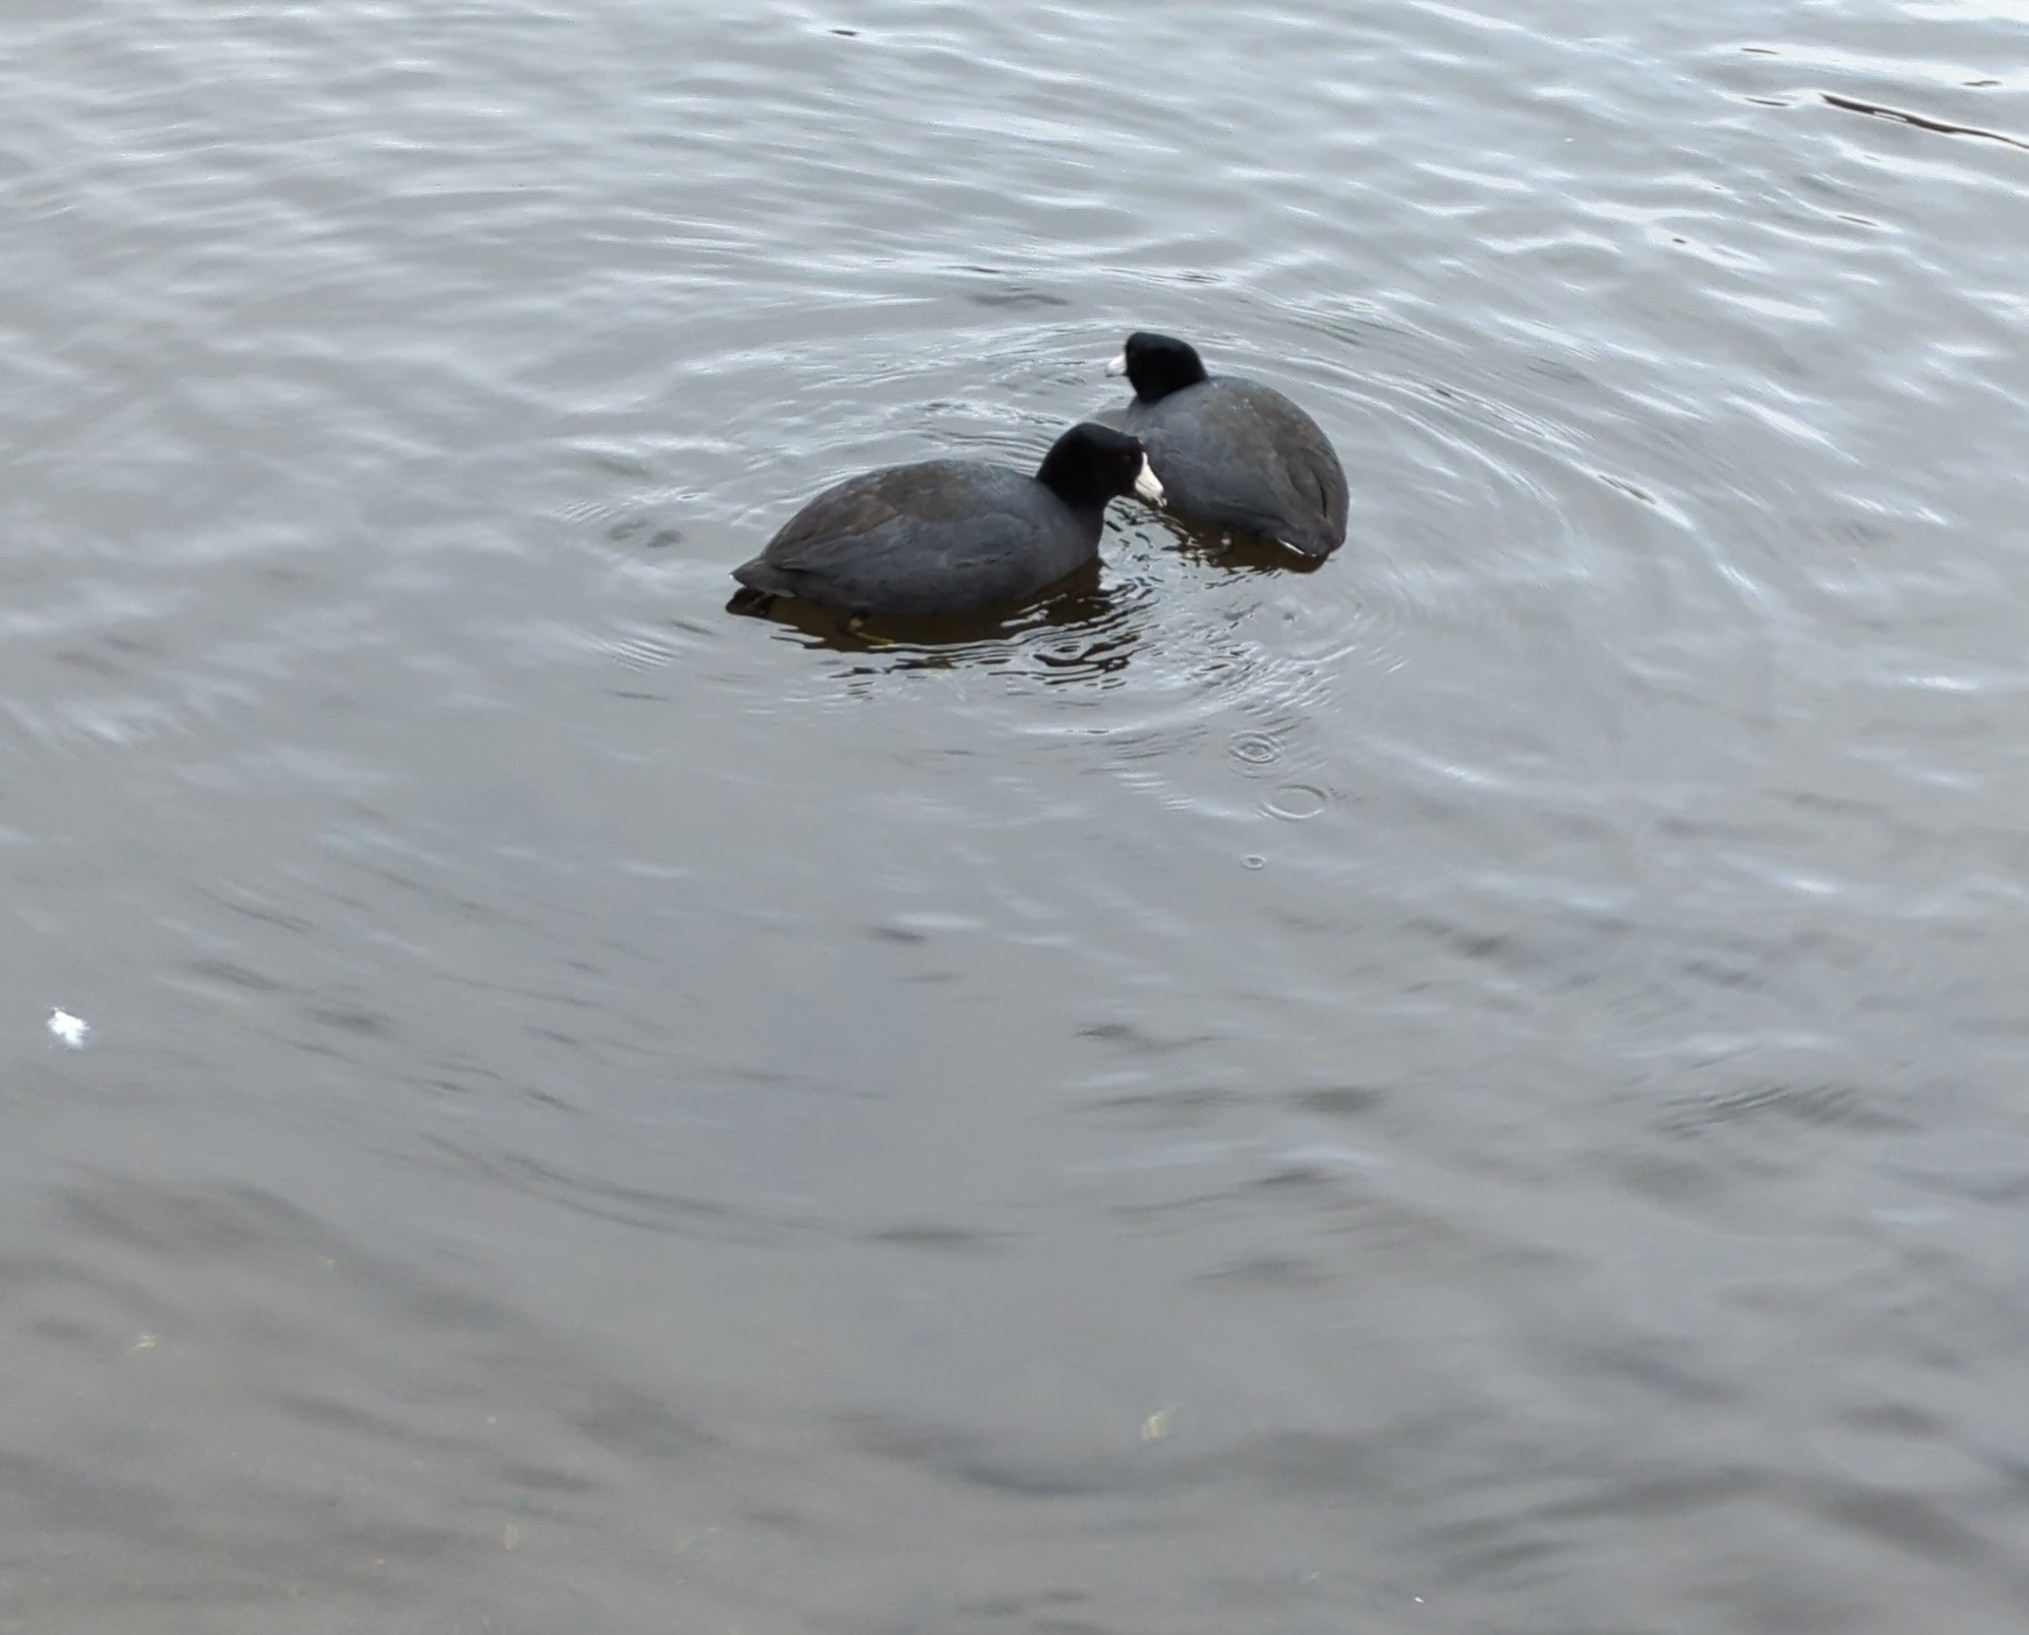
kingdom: Animalia
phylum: Chordata
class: Aves
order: Gruiformes
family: Rallidae
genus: Fulica
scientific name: Fulica americana
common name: American coot
